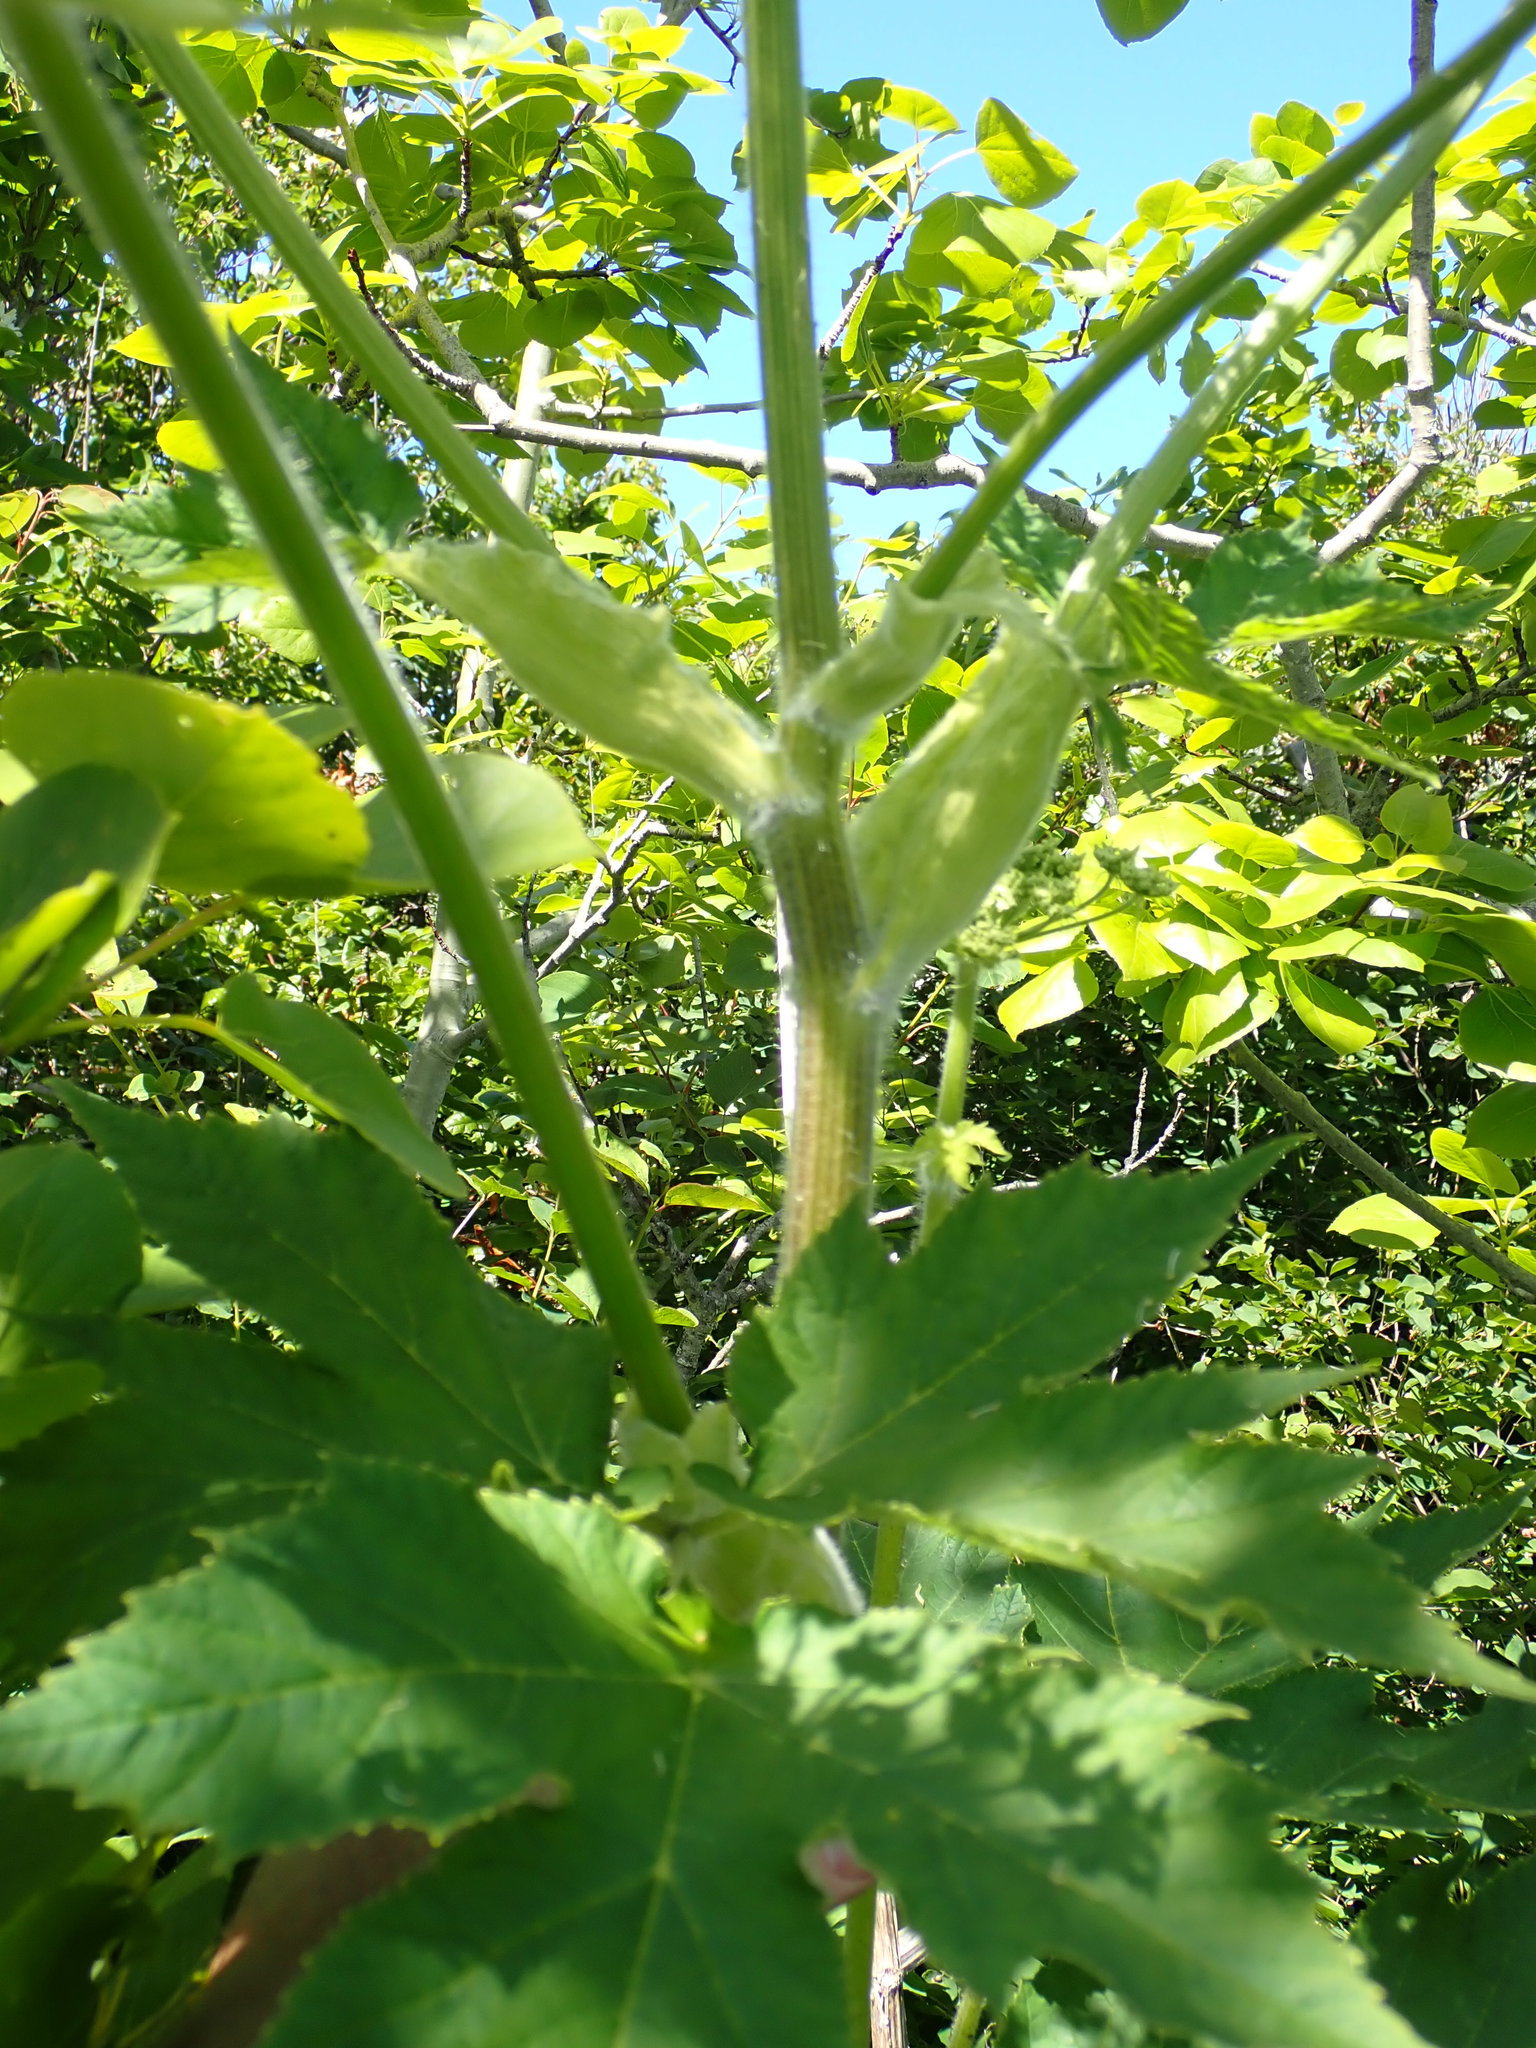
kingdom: Plantae
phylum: Tracheophyta
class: Magnoliopsida
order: Apiales
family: Apiaceae
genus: Heracleum
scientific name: Heracleum maximum
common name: American cow parsnip
